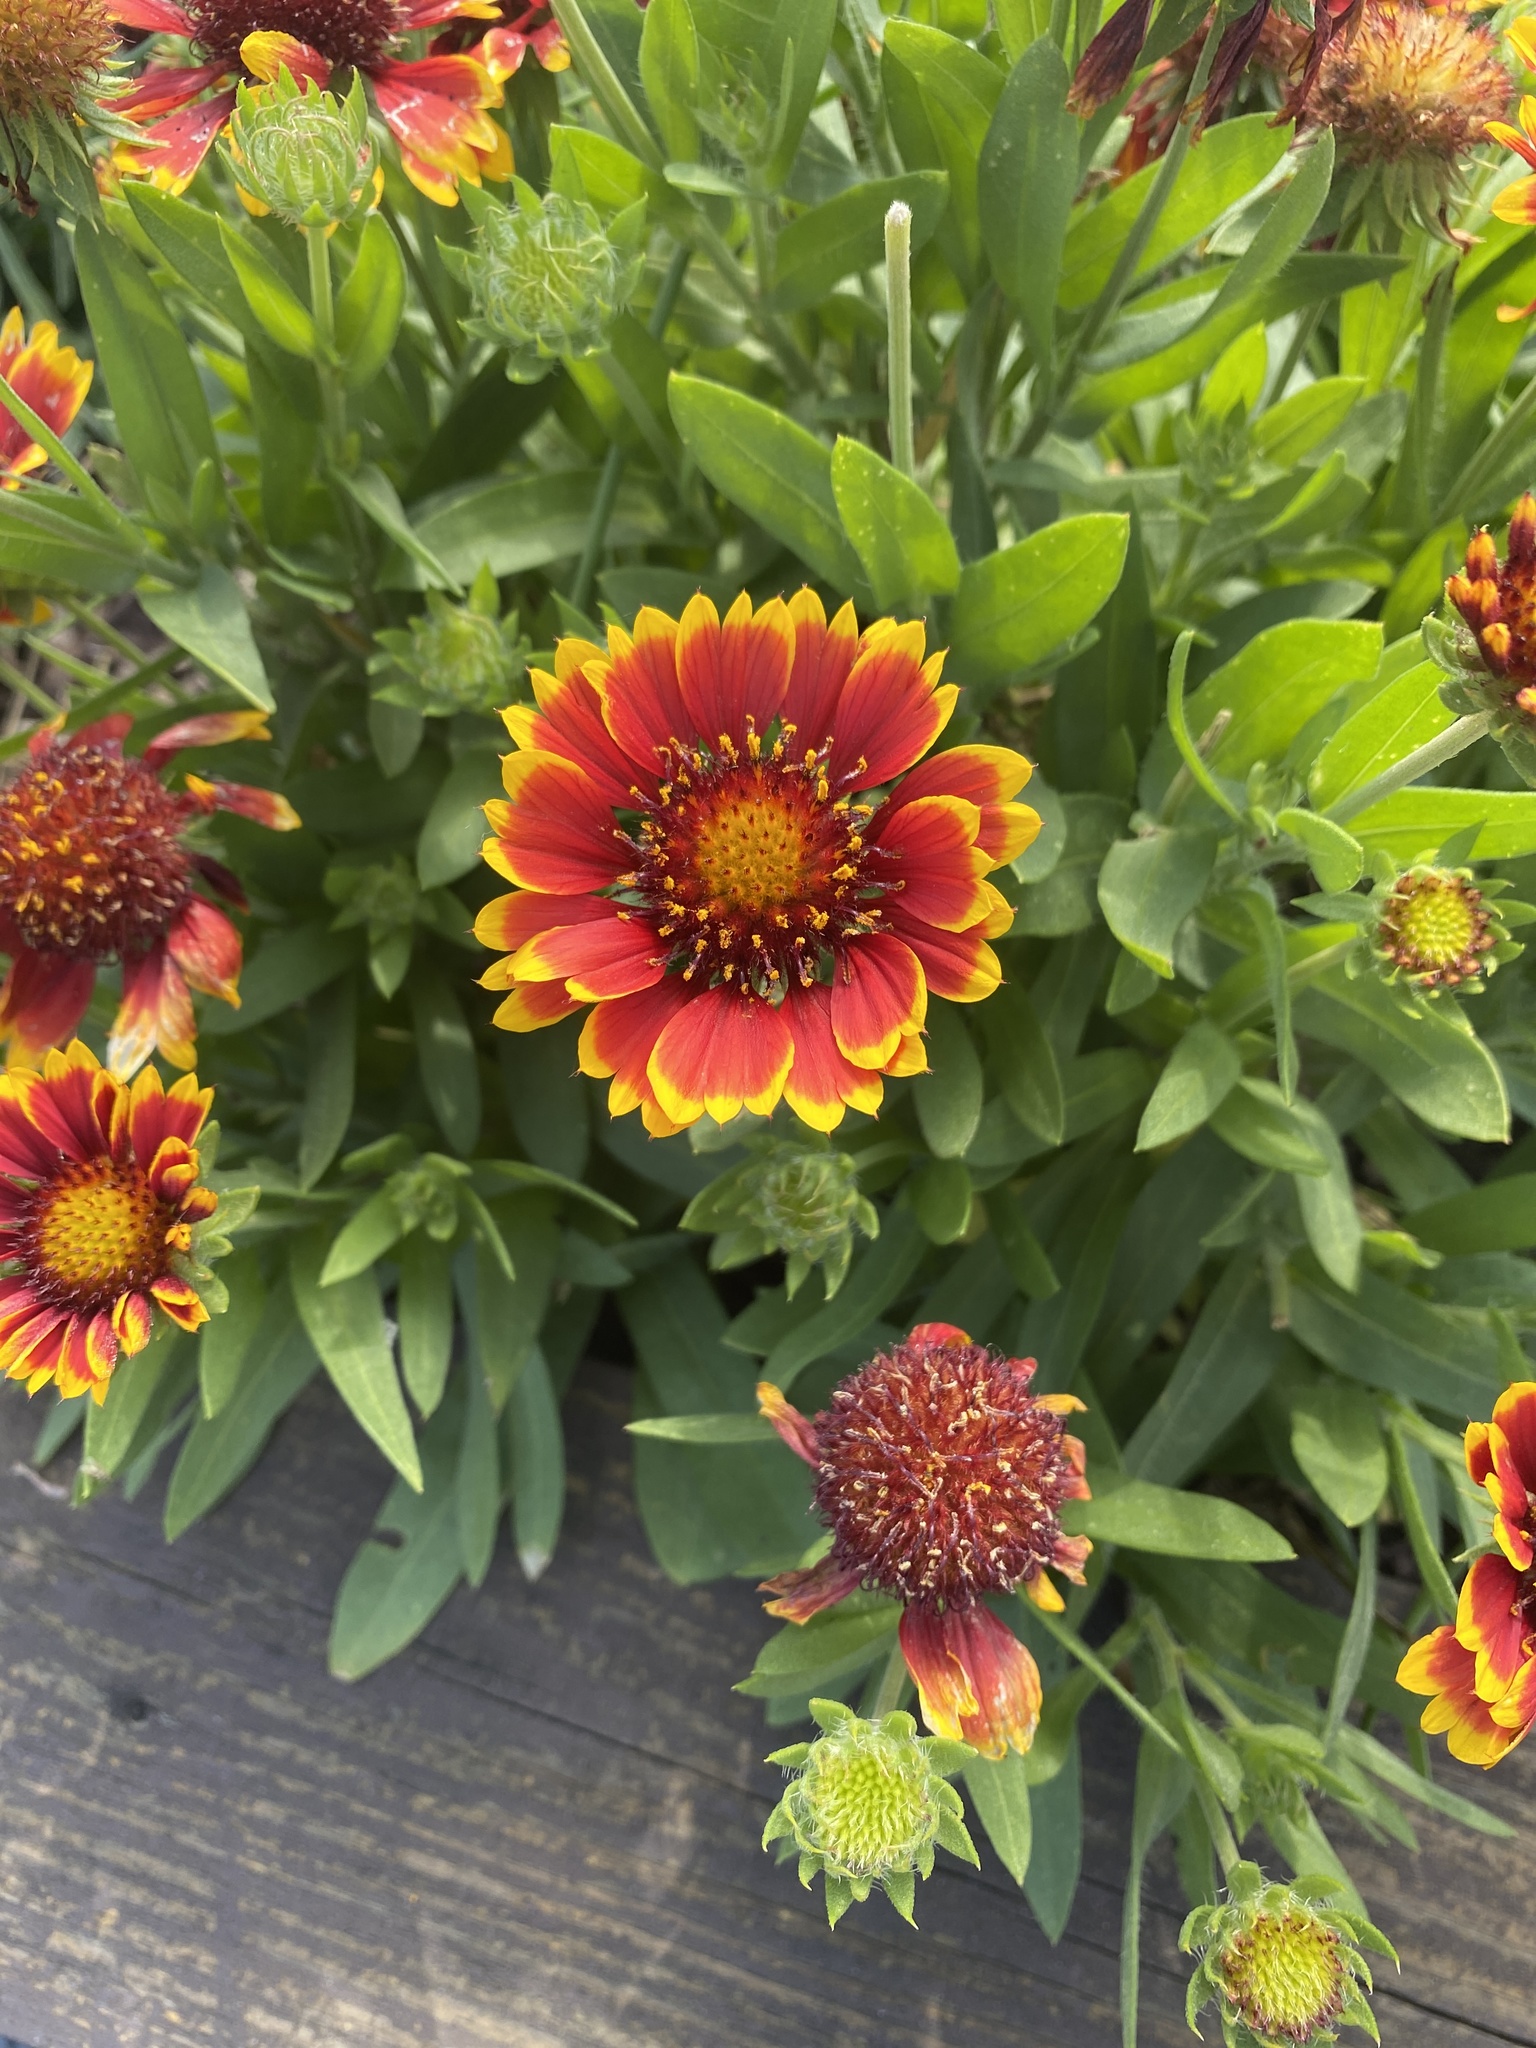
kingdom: Plantae
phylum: Tracheophyta
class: Magnoliopsida
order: Asterales
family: Asteraceae
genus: Gaillardia
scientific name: Gaillardia pulchella
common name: Firewheel
